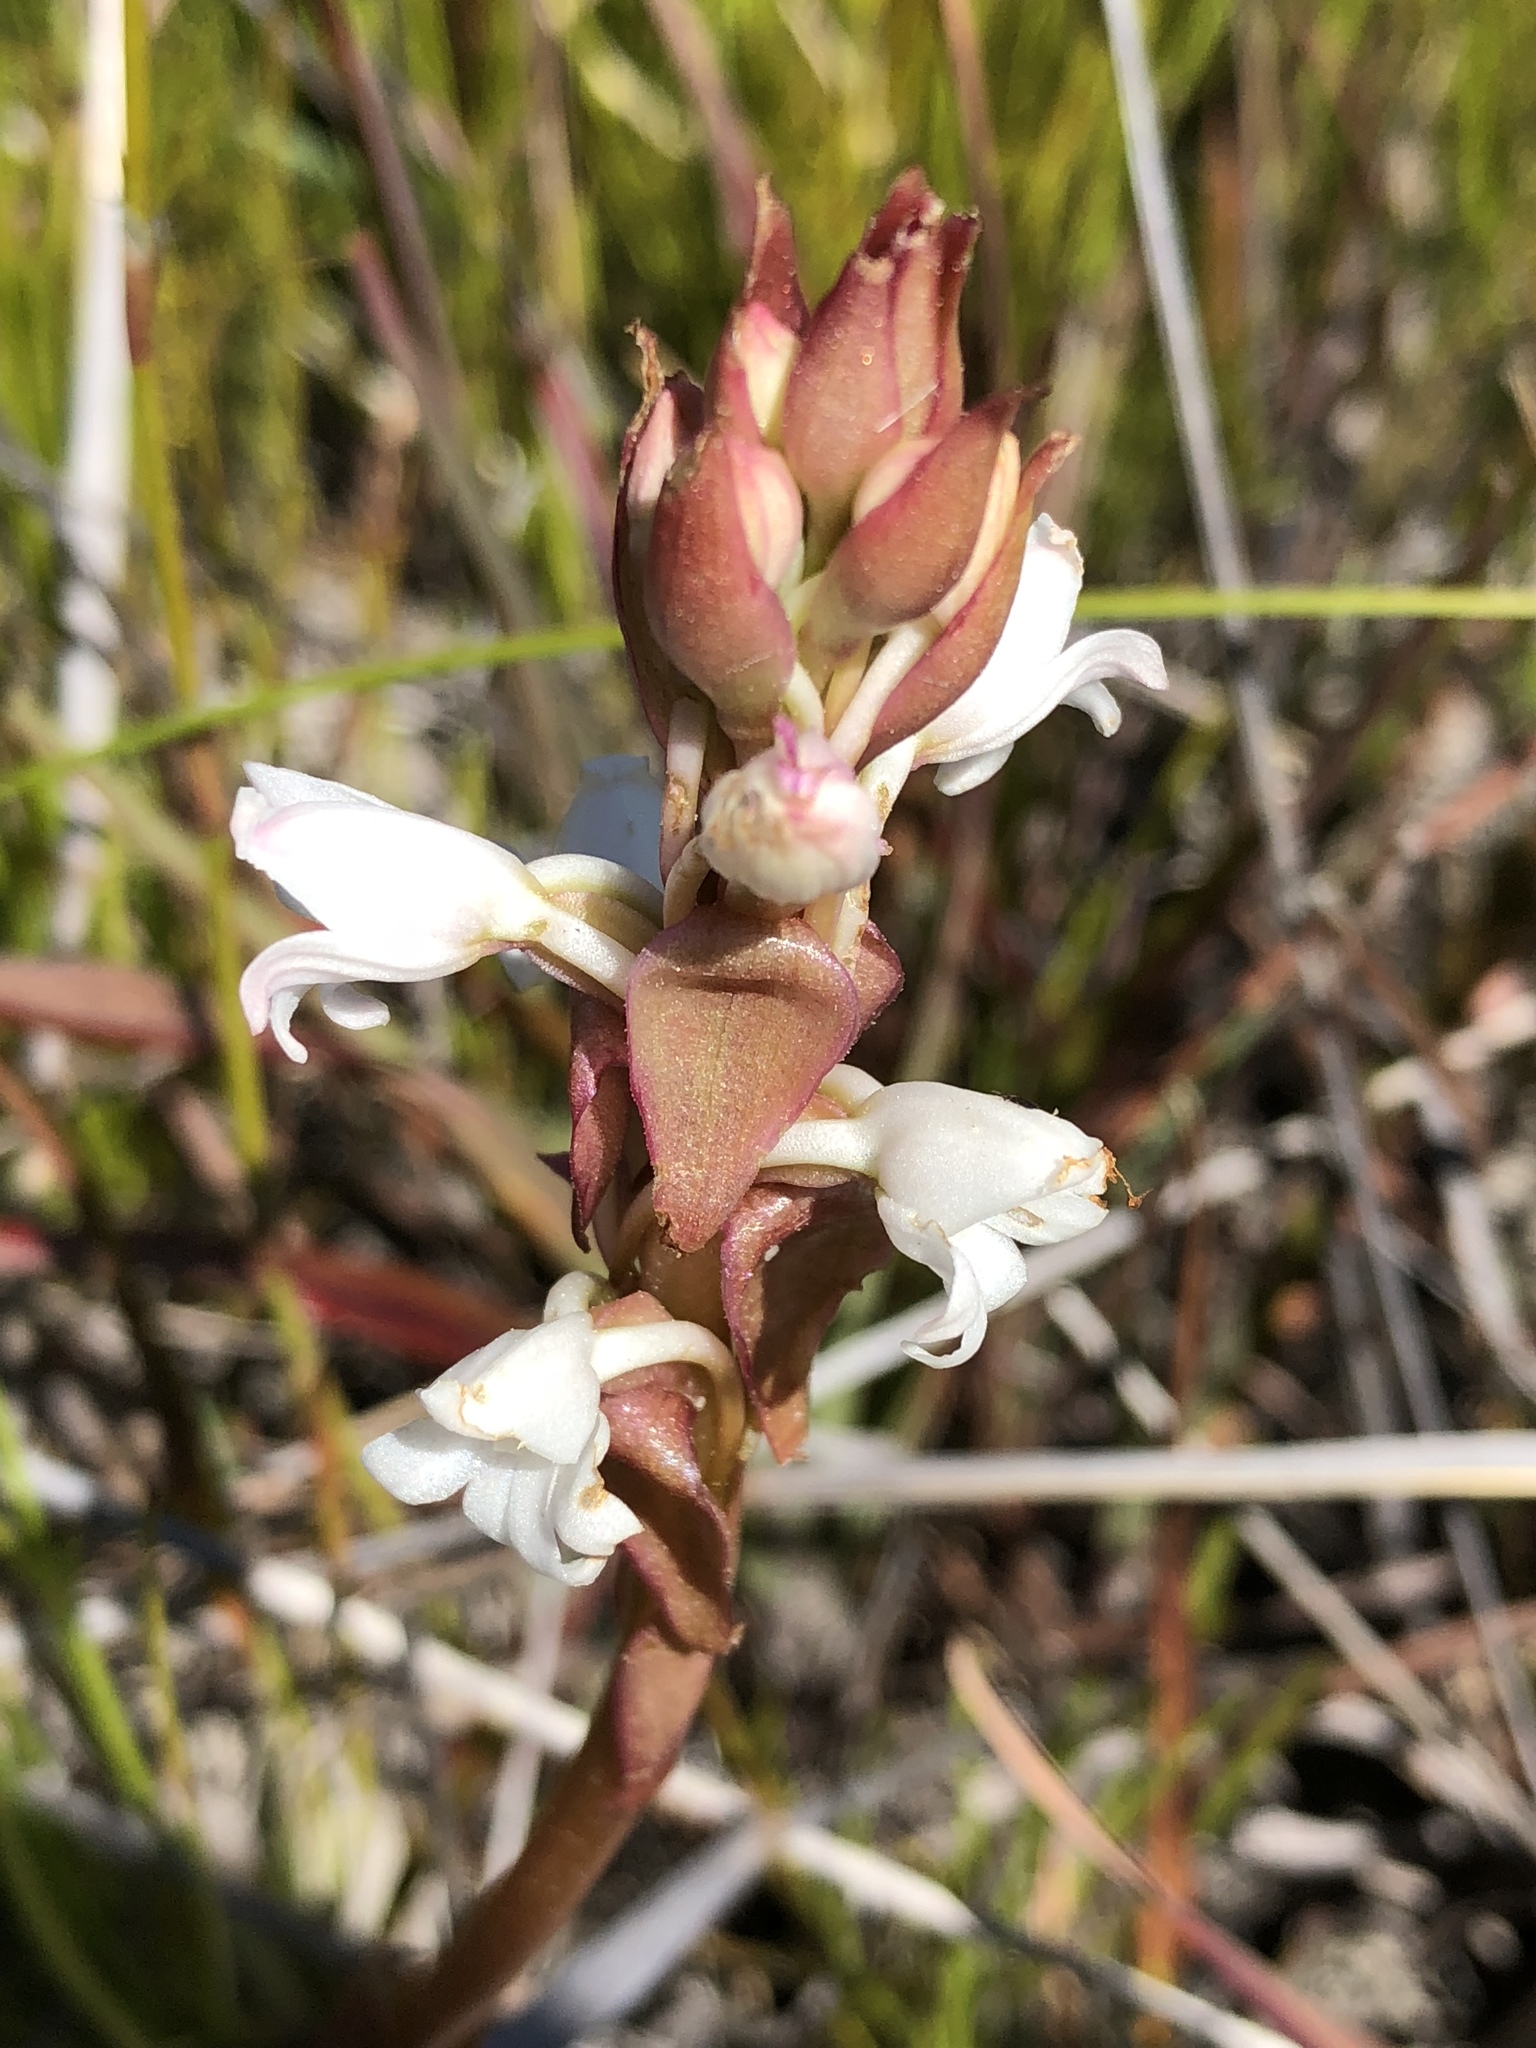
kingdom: Plantae
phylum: Tracheophyta
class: Liliopsida
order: Asparagales
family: Orchidaceae
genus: Satyrium
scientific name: Satyrium acuminatum
